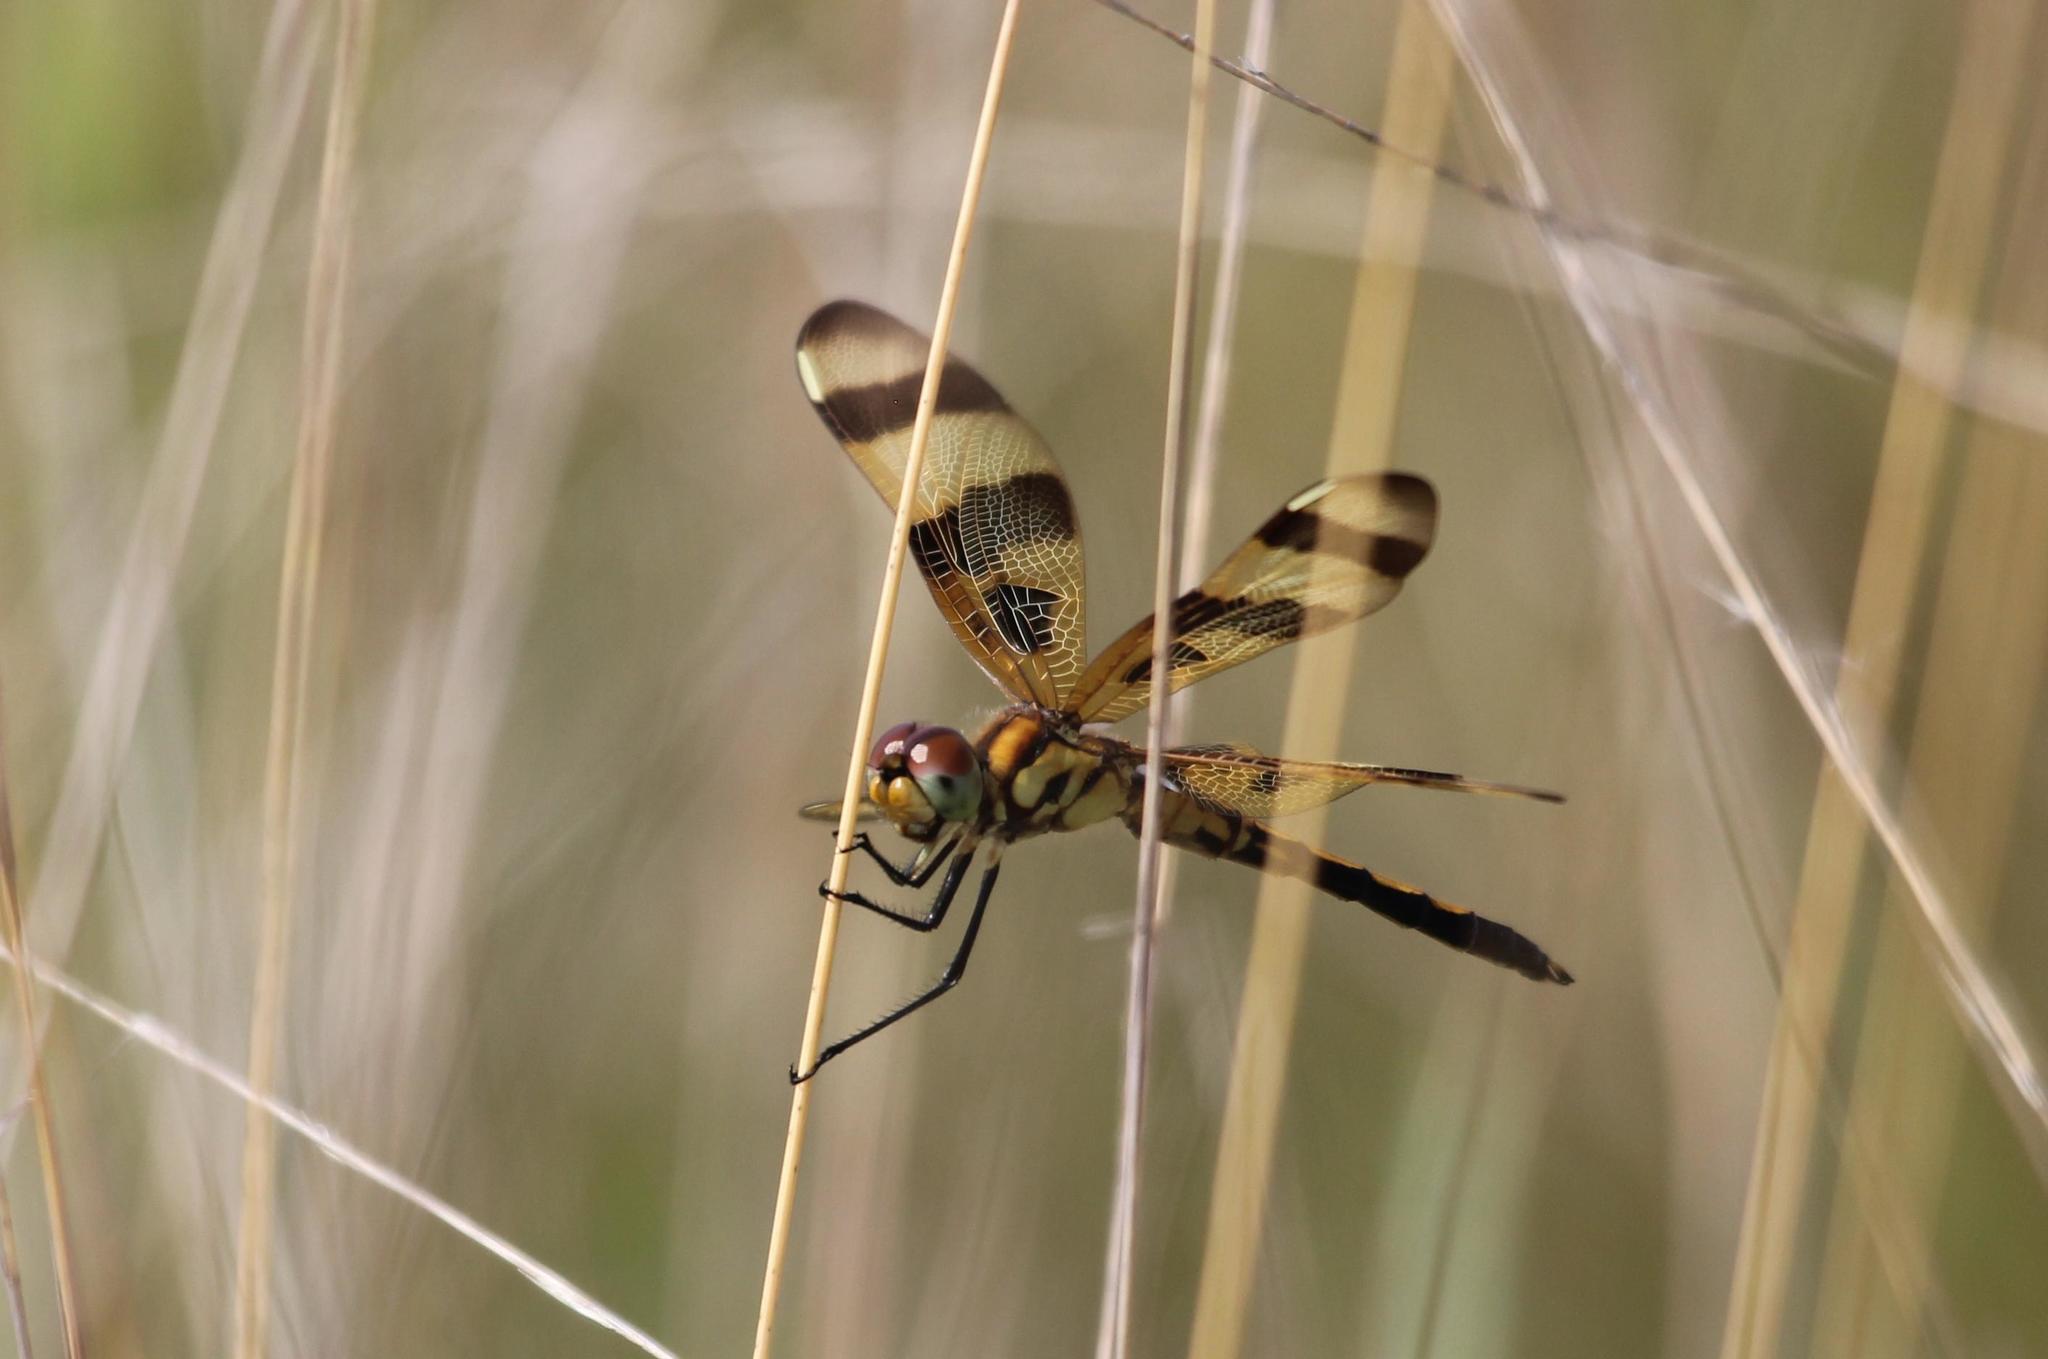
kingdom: Animalia
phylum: Arthropoda
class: Insecta
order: Odonata
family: Libellulidae
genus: Celithemis
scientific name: Celithemis eponina
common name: Halloween pennant
